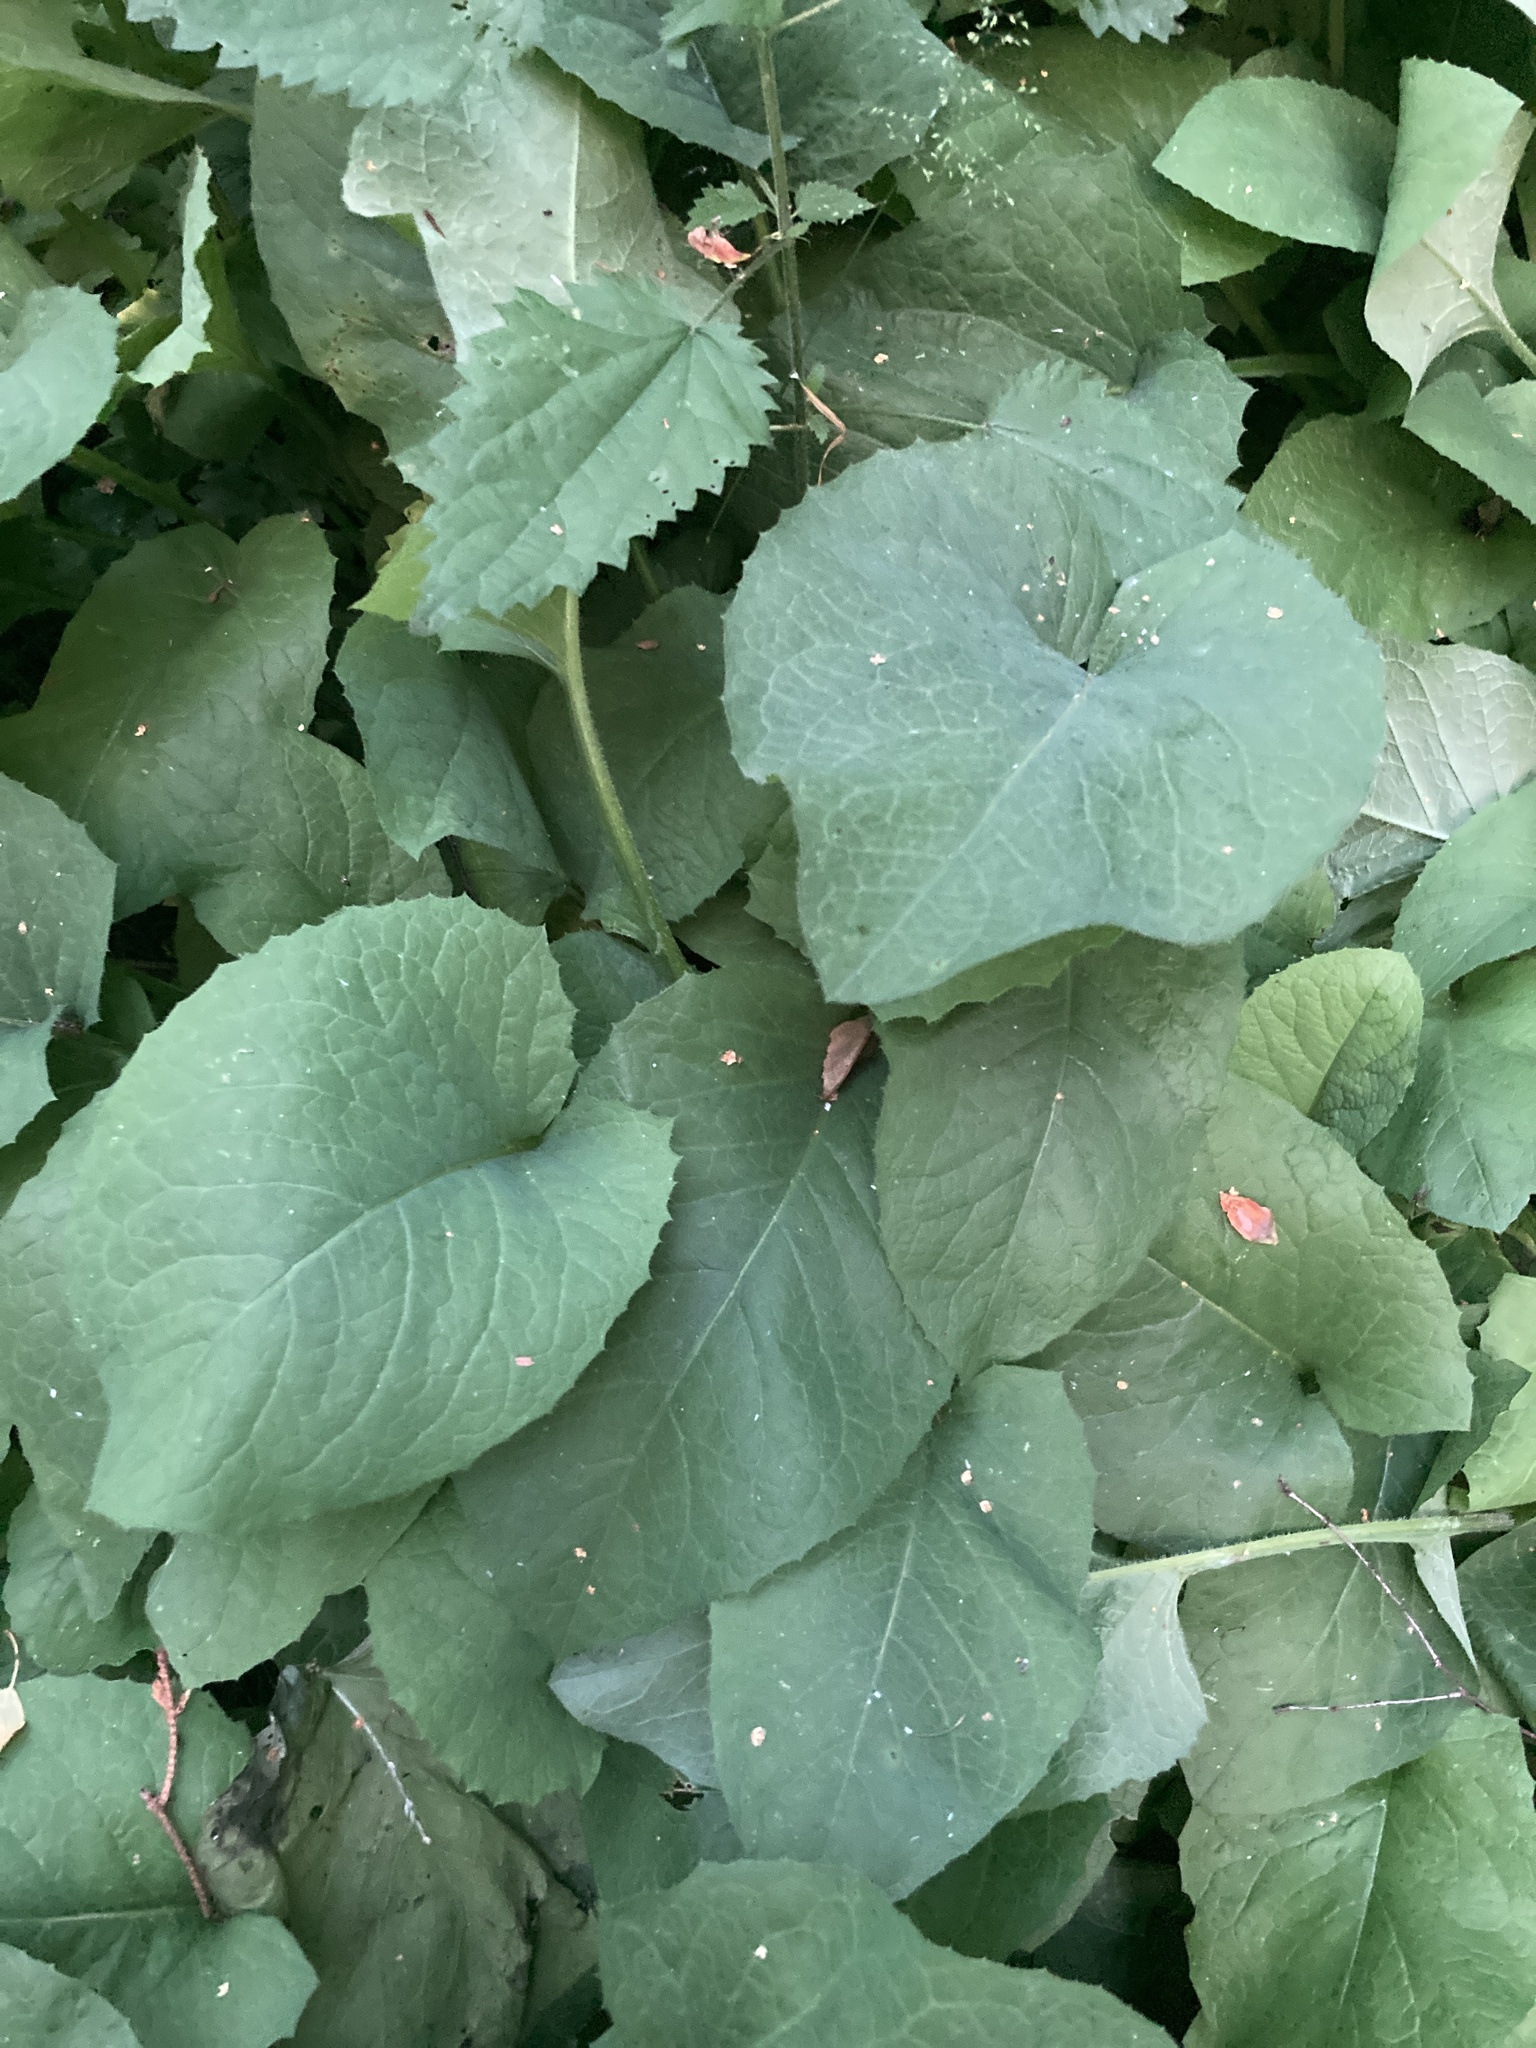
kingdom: Plantae
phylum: Tracheophyta
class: Magnoliopsida
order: Asterales
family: Asteraceae
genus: Lactuca
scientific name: Lactuca macrophylla
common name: Common blue-sow-thistle
